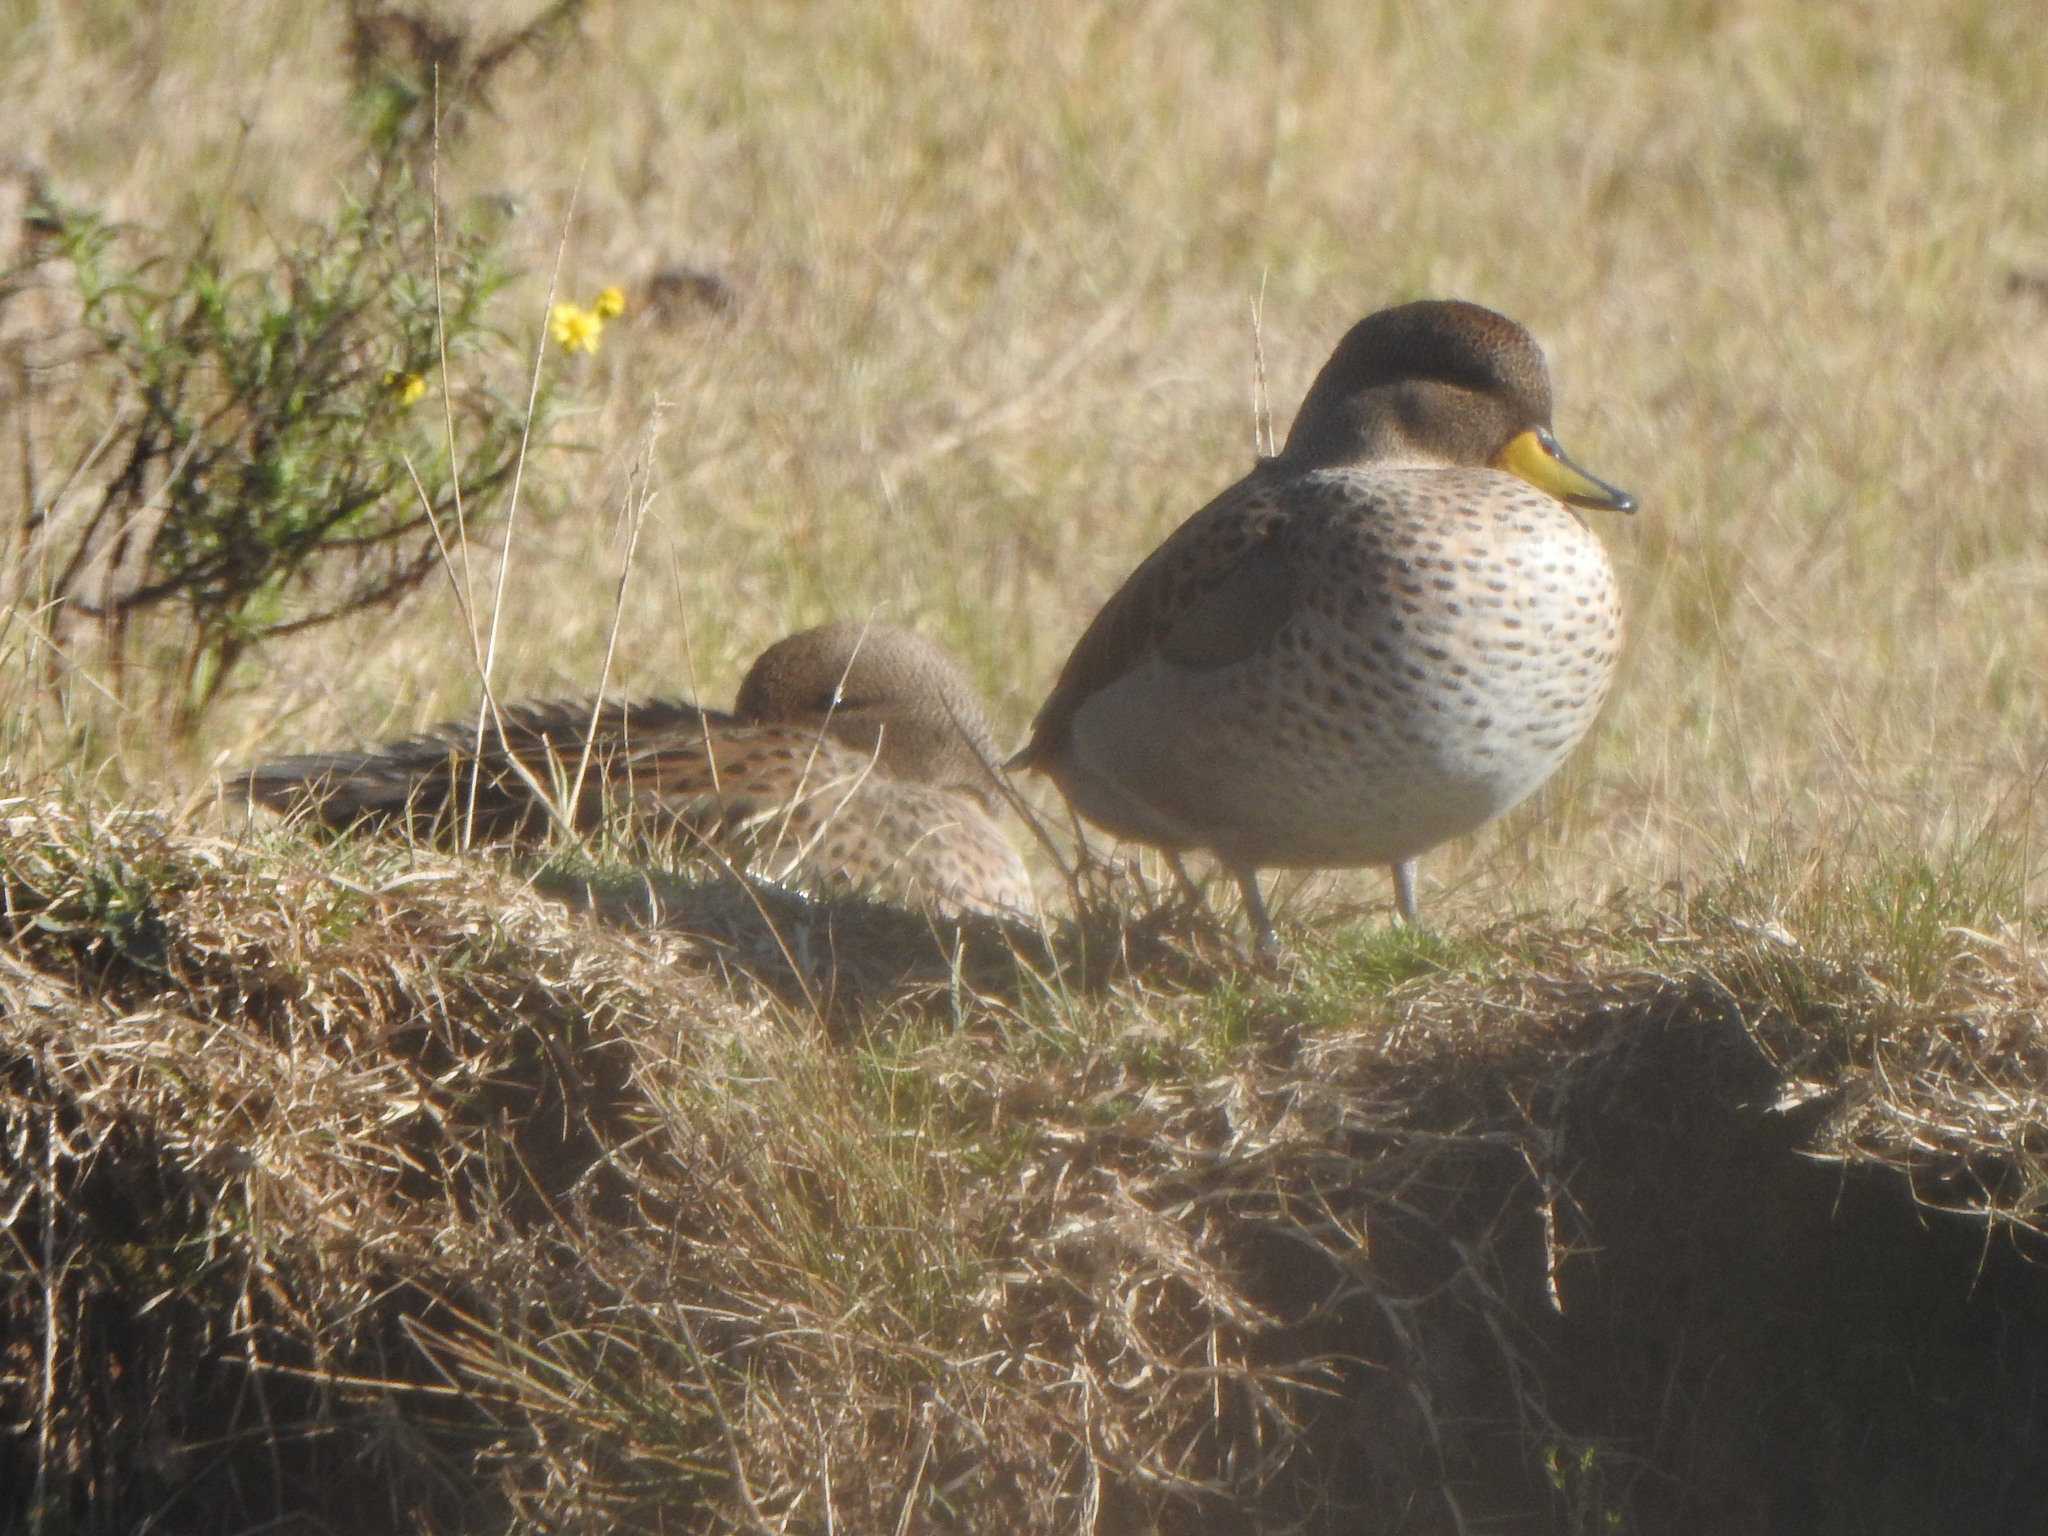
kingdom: Animalia
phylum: Chordata
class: Aves
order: Anseriformes
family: Anatidae
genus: Anas
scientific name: Anas flavirostris
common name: Yellow-billed teal
